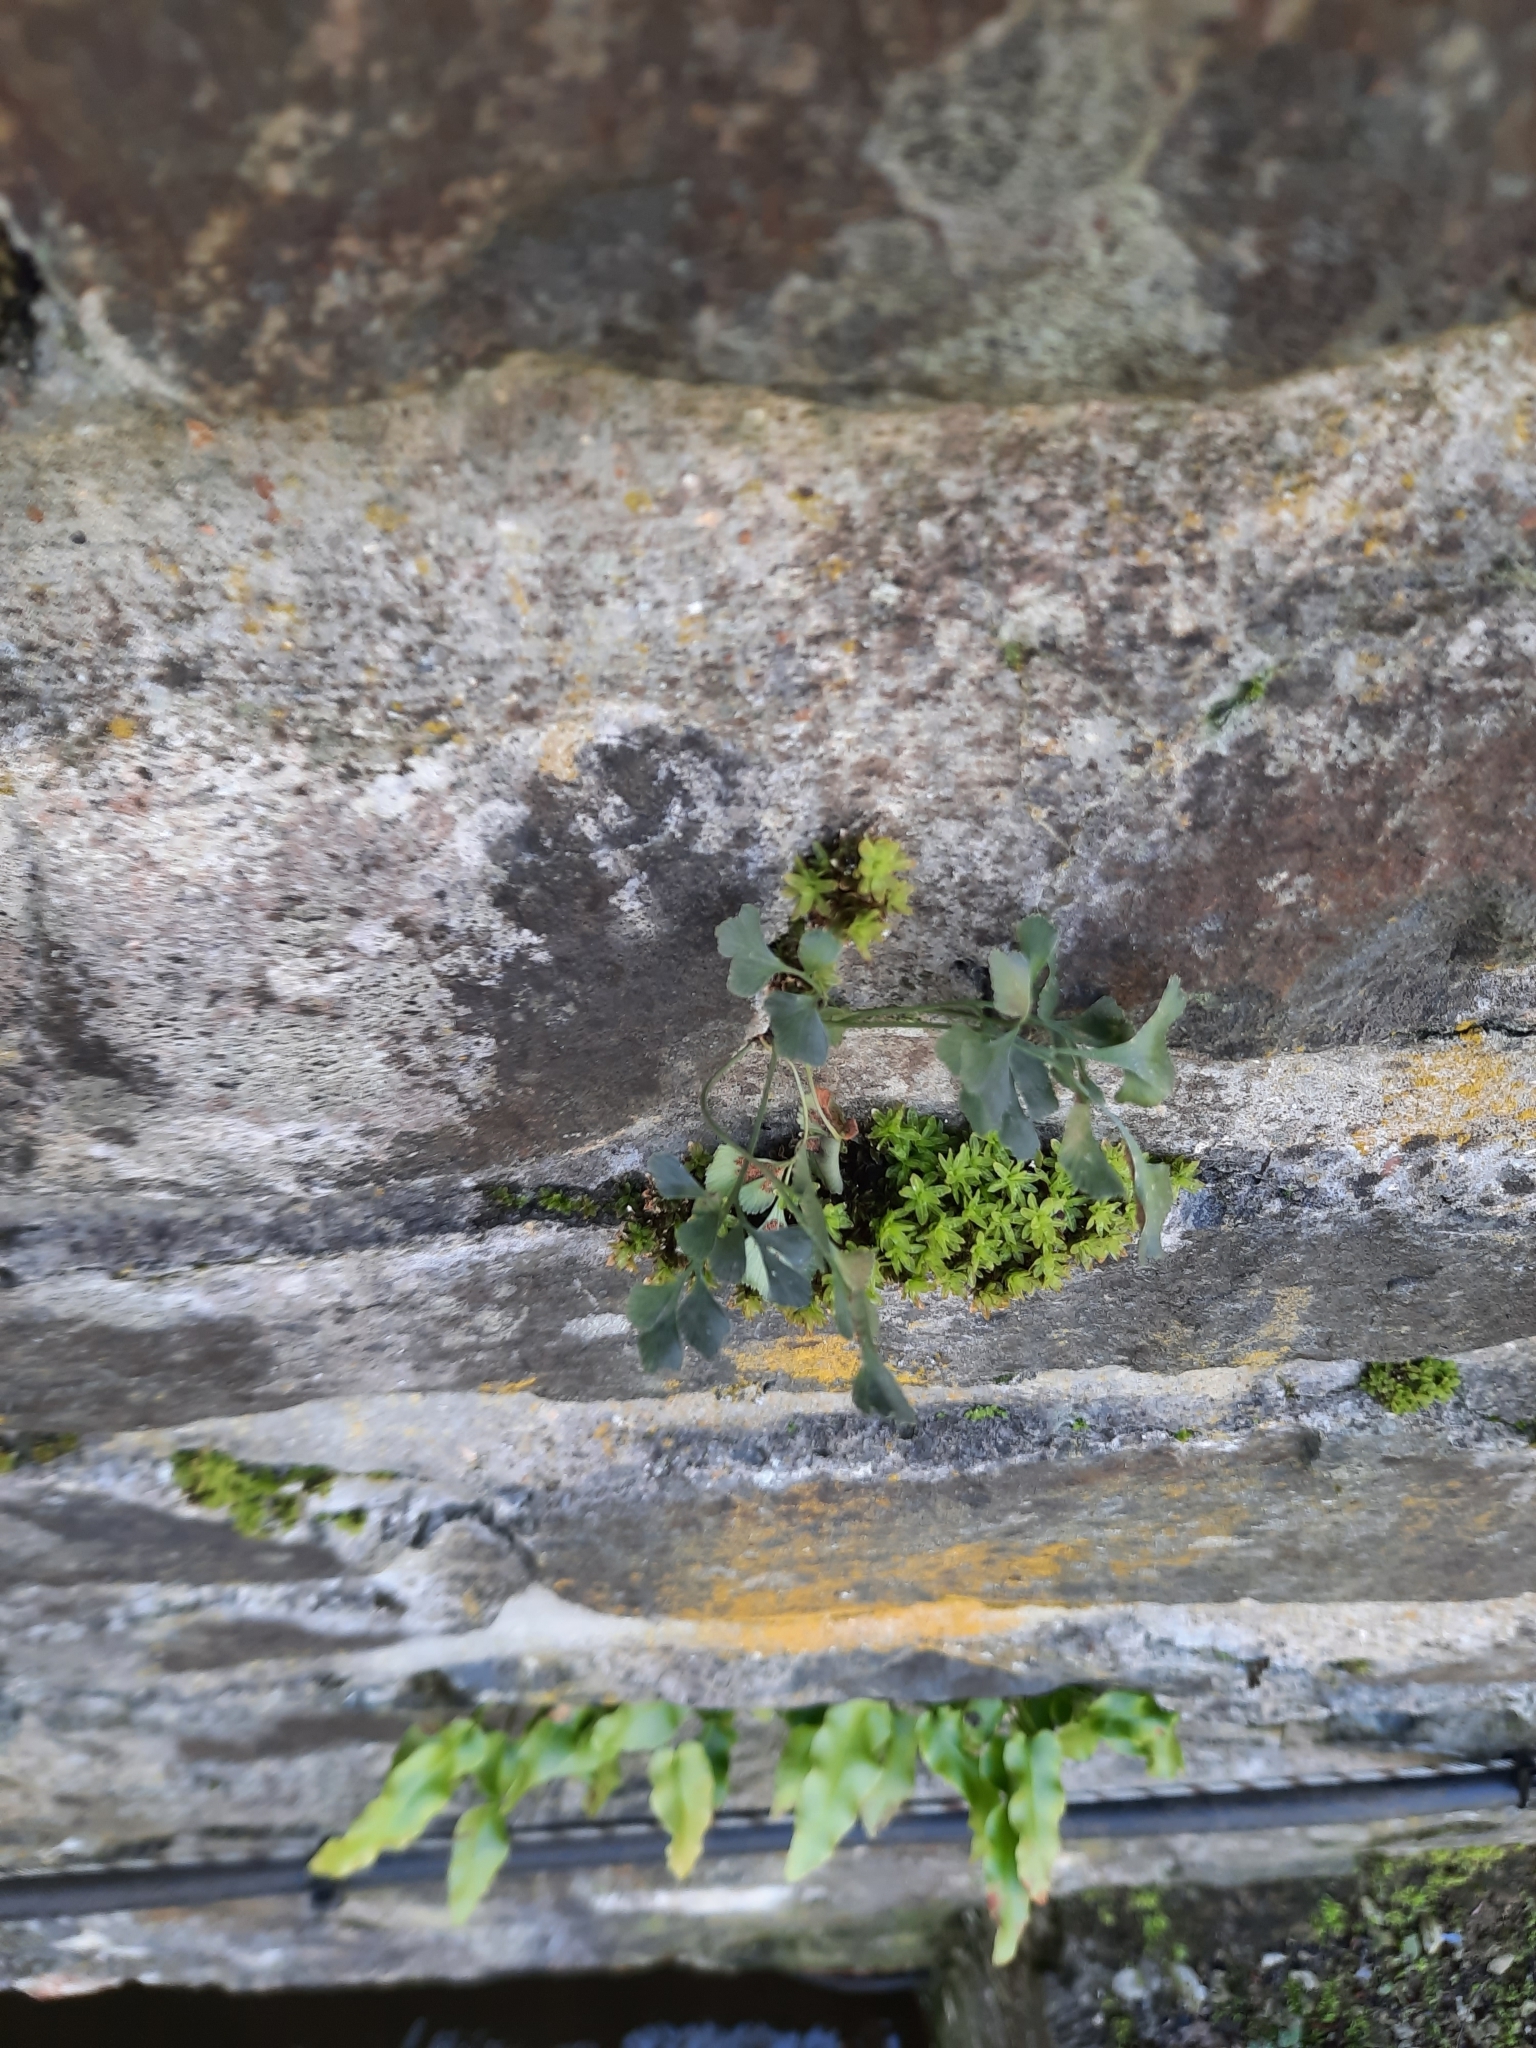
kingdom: Plantae
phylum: Tracheophyta
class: Polypodiopsida
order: Polypodiales
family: Aspleniaceae
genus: Asplenium
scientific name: Asplenium ruta-muraria
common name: Wall-rue
